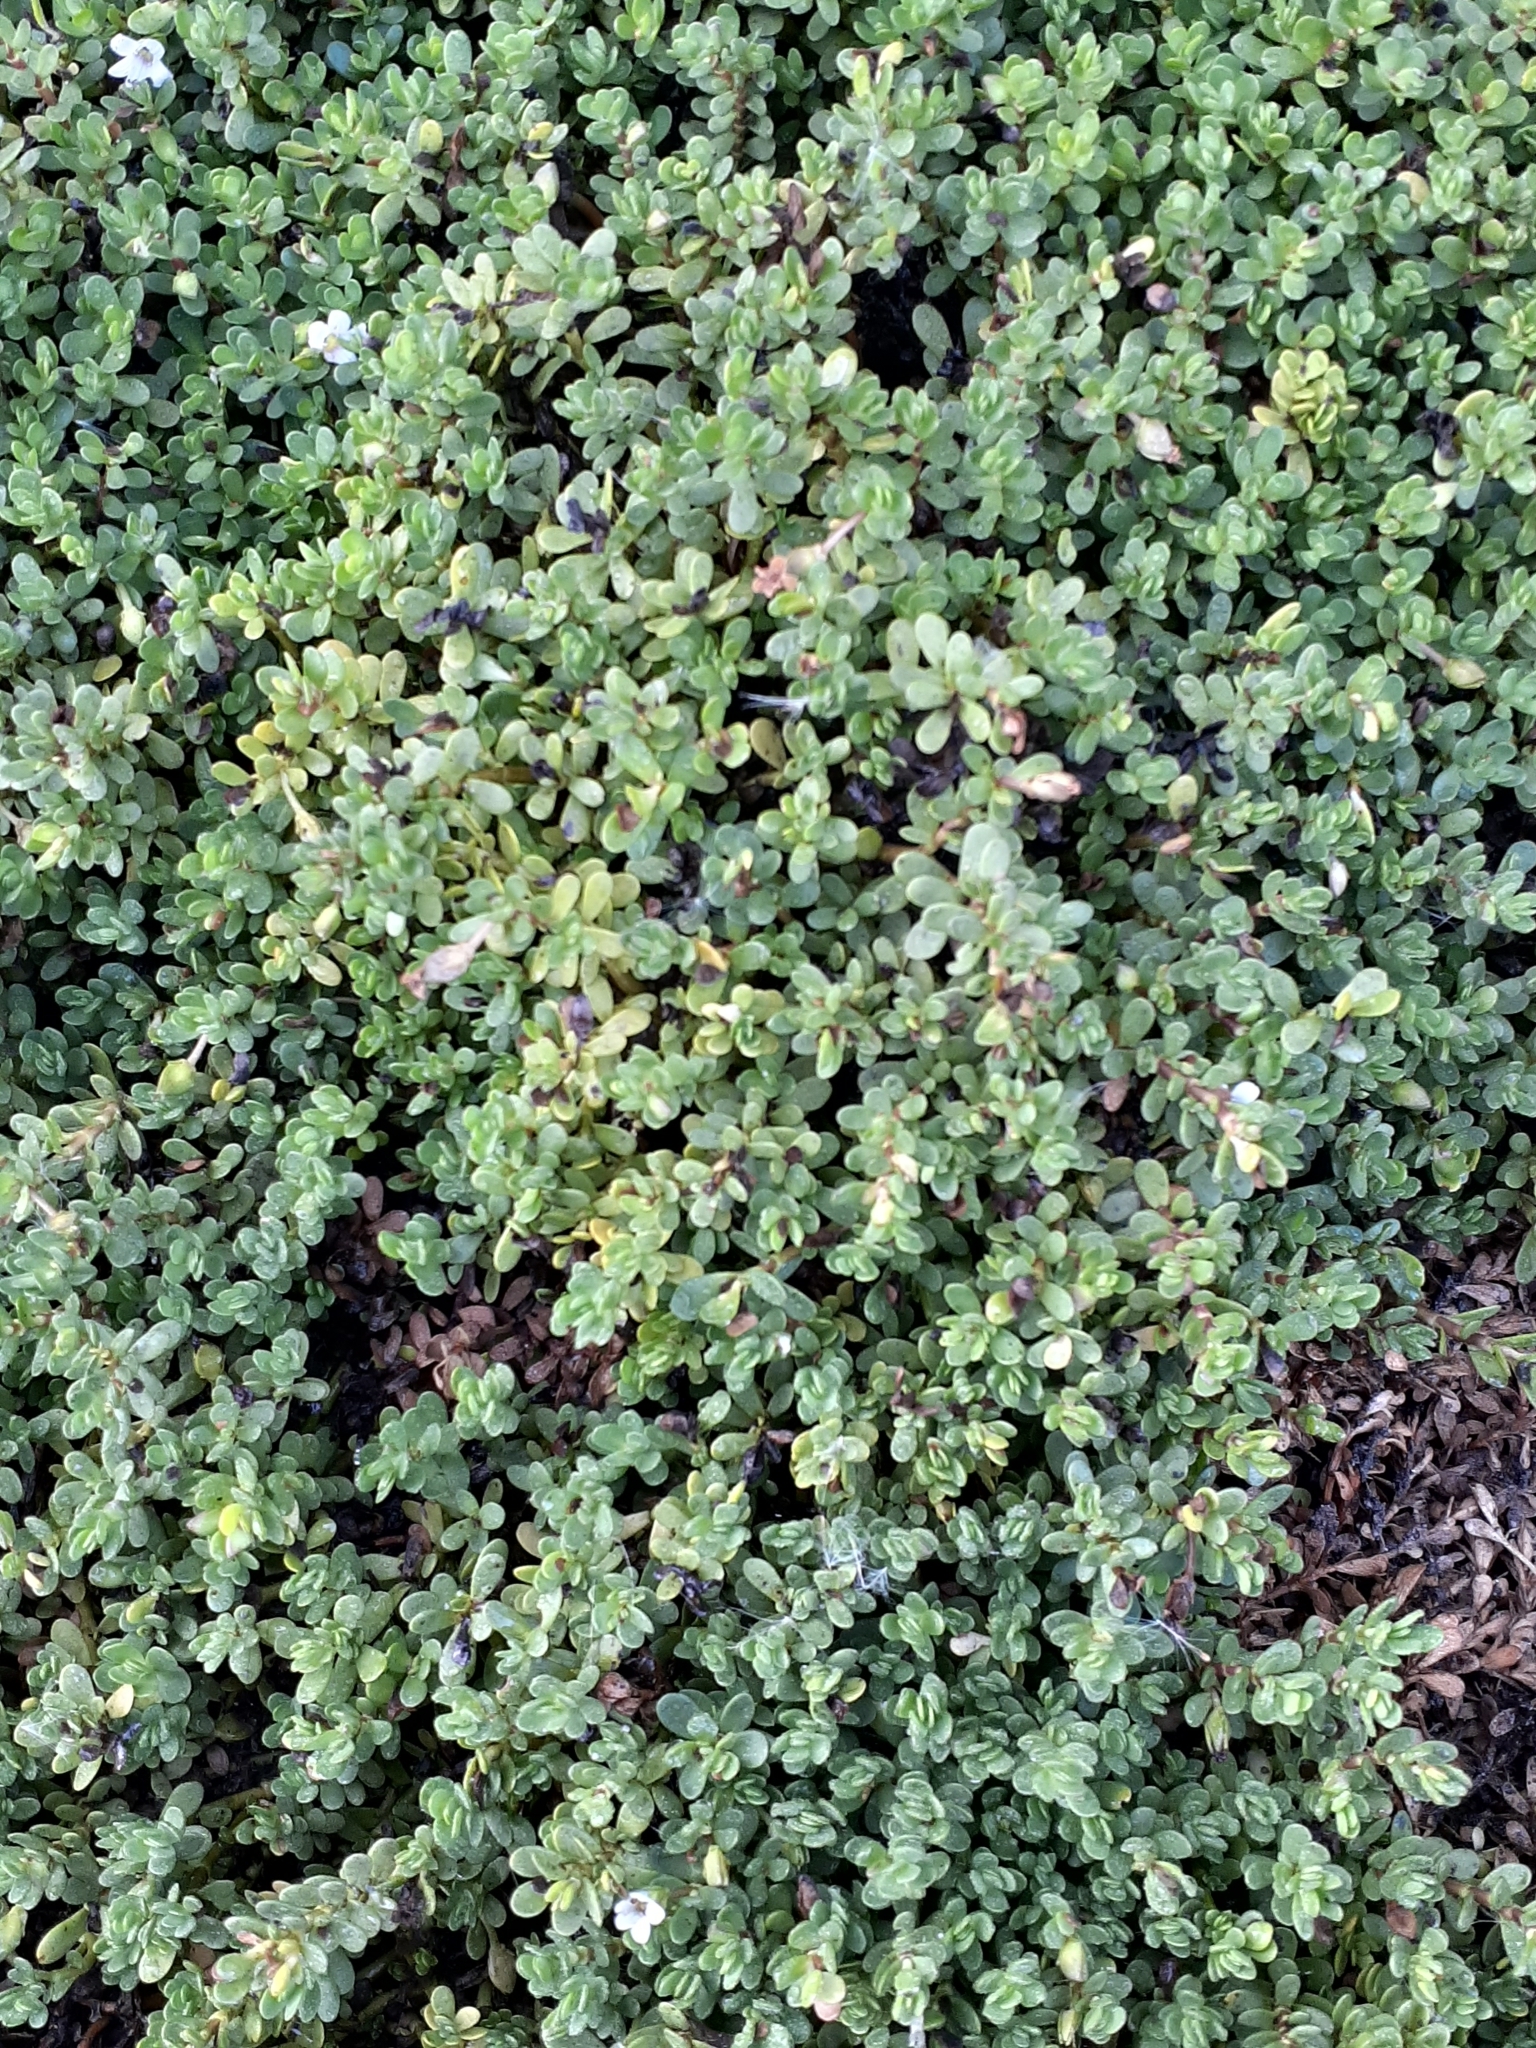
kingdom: Plantae
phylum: Tracheophyta
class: Magnoliopsida
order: Lamiales
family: Plantaginaceae
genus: Bacopa
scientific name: Bacopa monnieri
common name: Indian-pennywort
